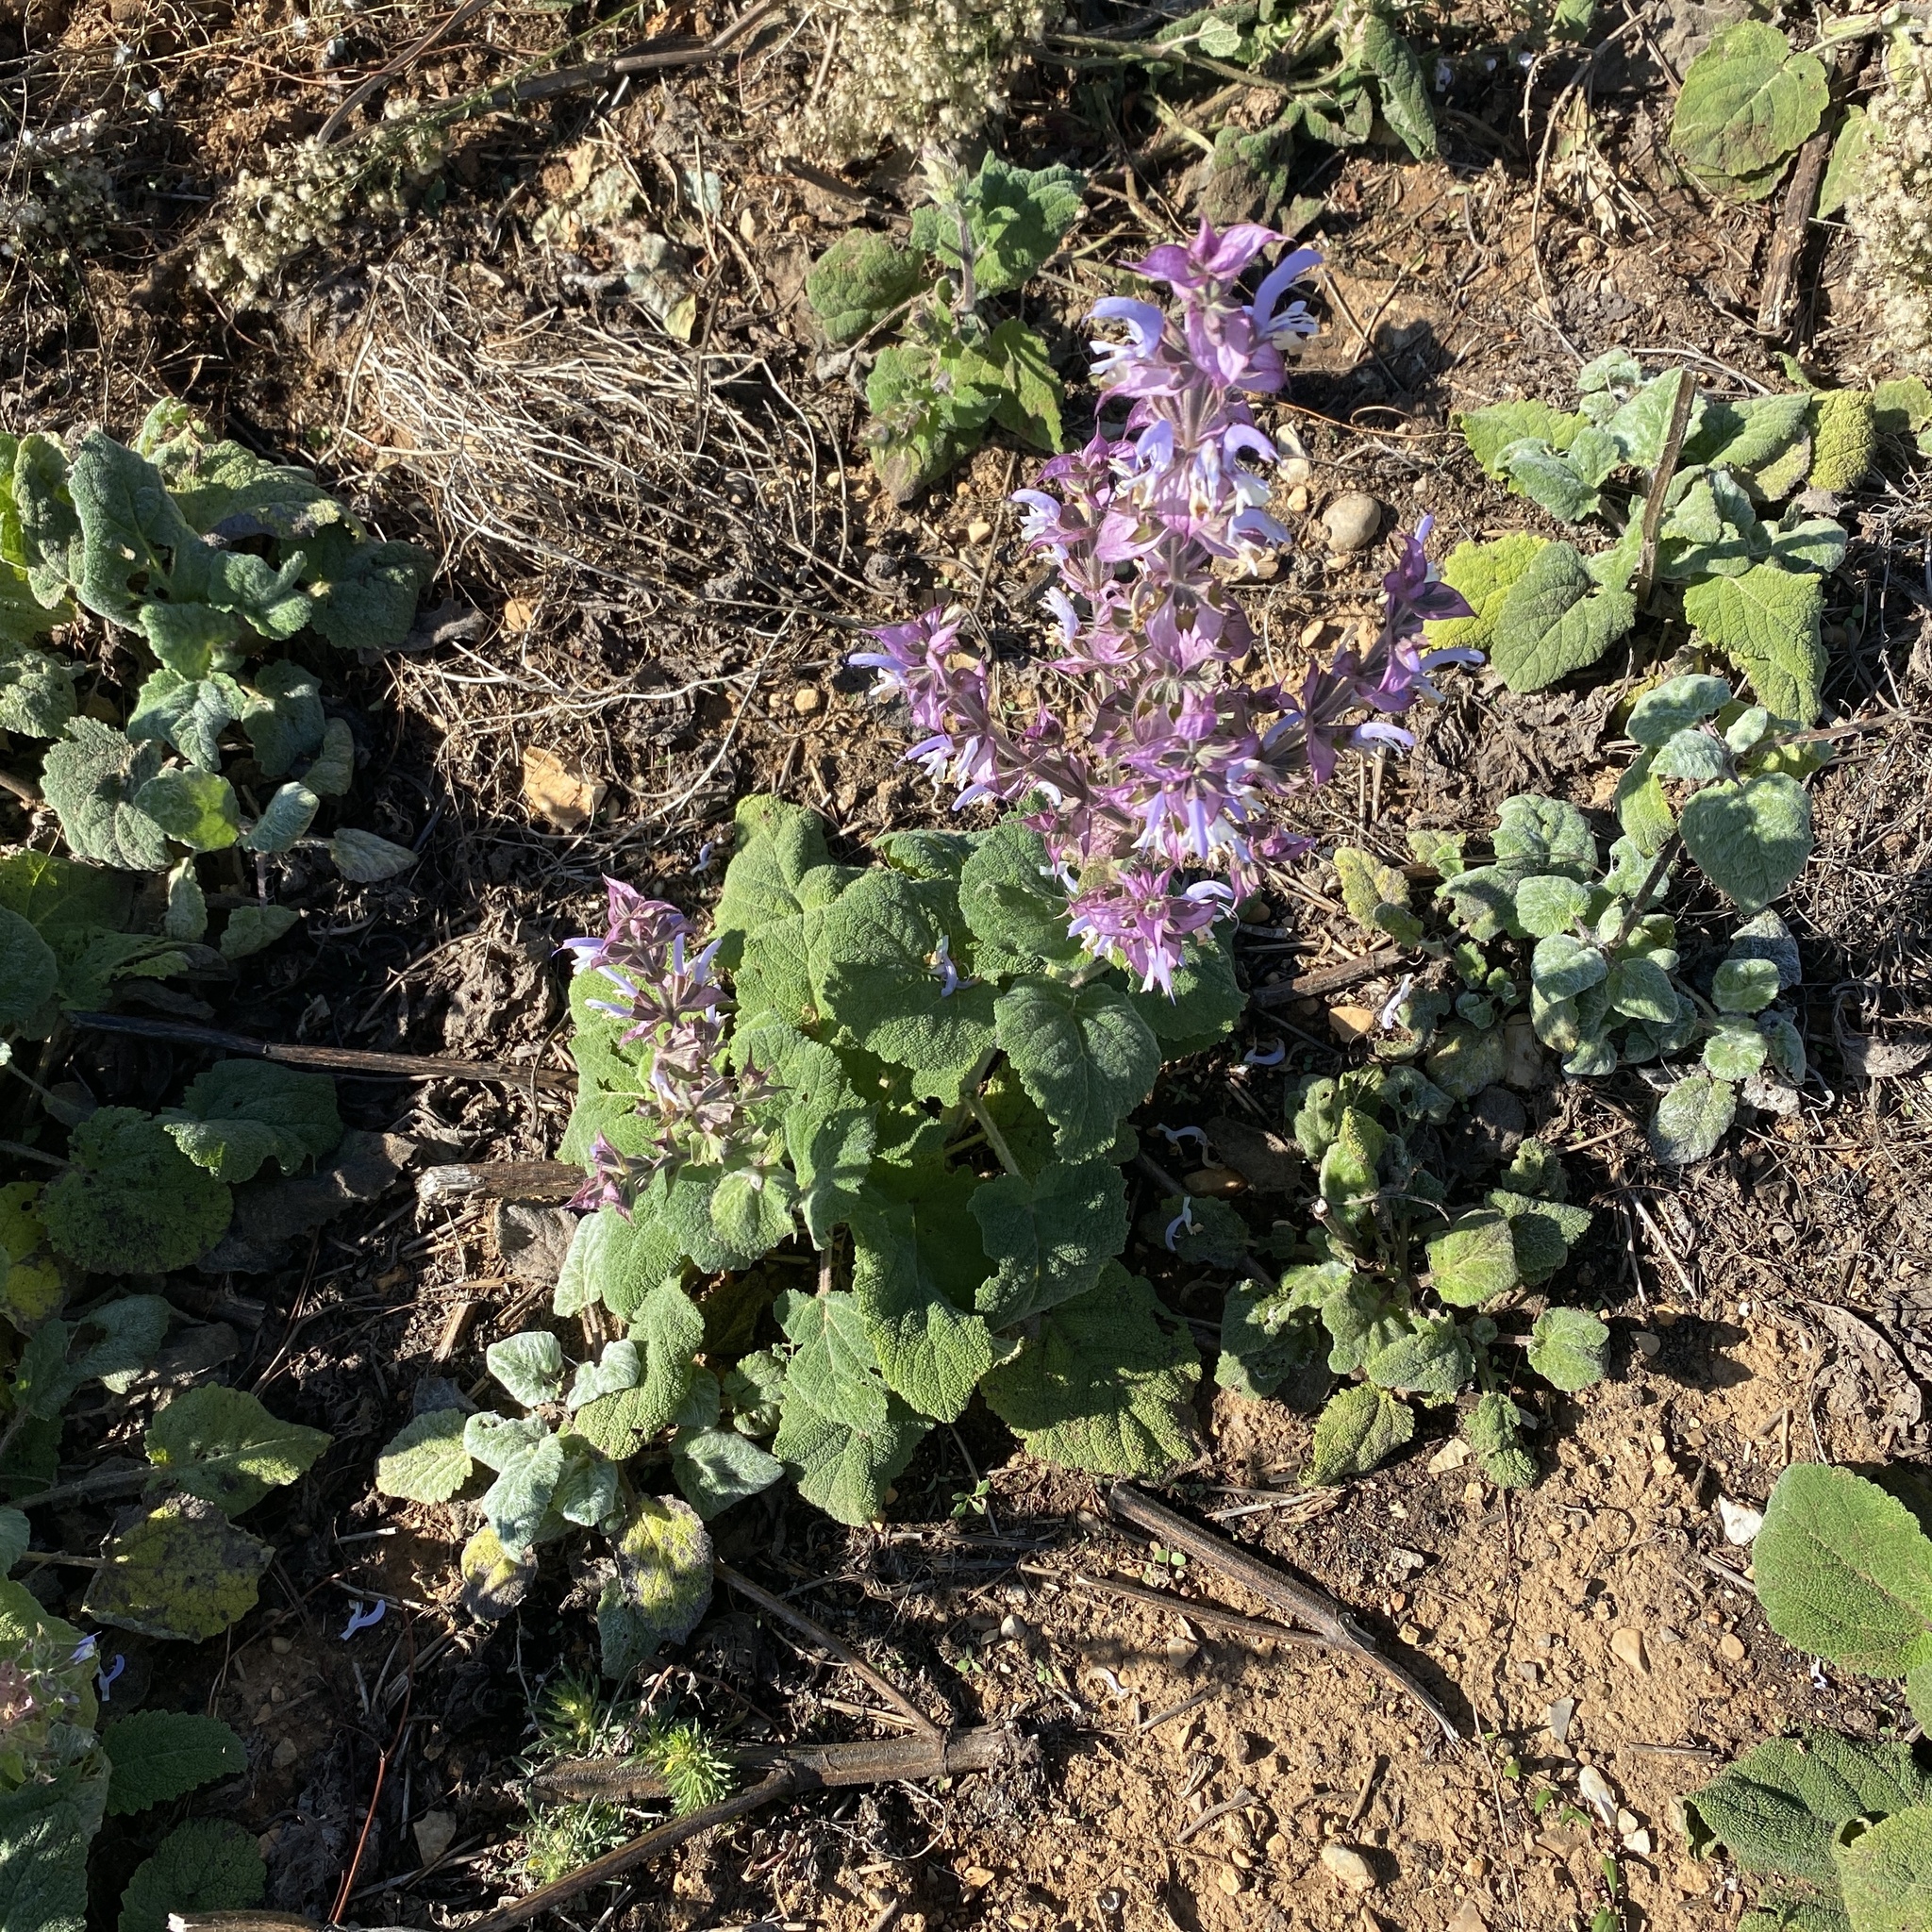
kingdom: Plantae
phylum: Tracheophyta
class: Magnoliopsida
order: Lamiales
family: Lamiaceae
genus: Salvia
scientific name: Salvia sclarea
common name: Clary
